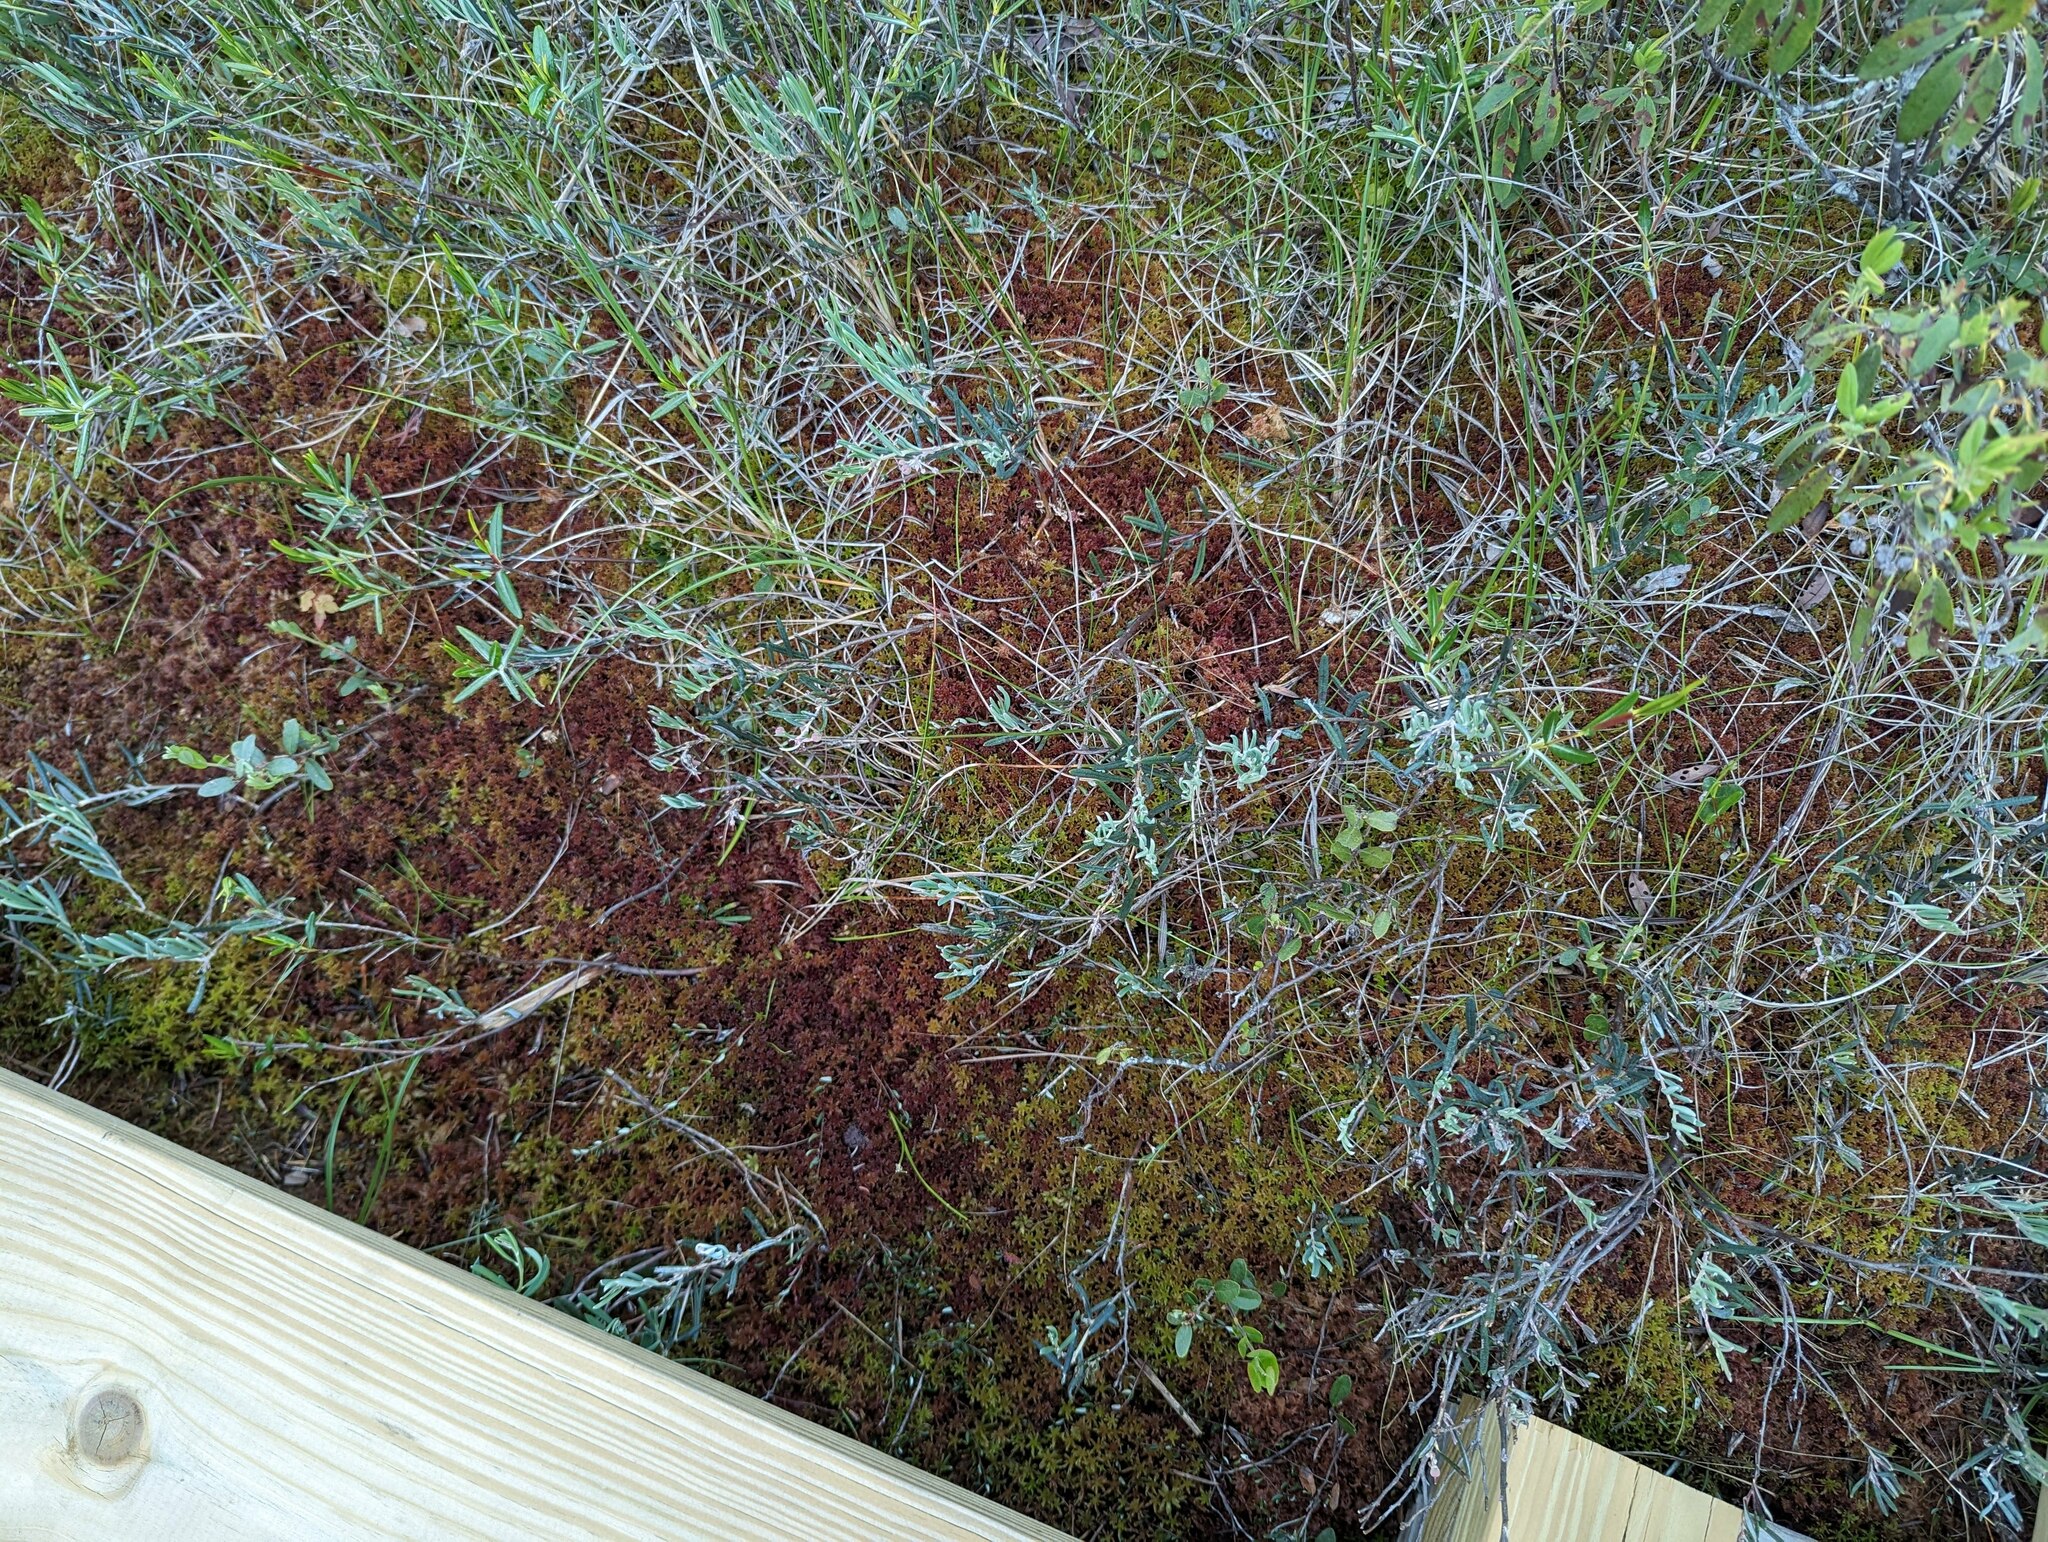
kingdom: Plantae
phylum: Tracheophyta
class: Magnoliopsida
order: Ericales
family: Ericaceae
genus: Andromeda
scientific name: Andromeda polifolia
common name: Bog-rosemary
